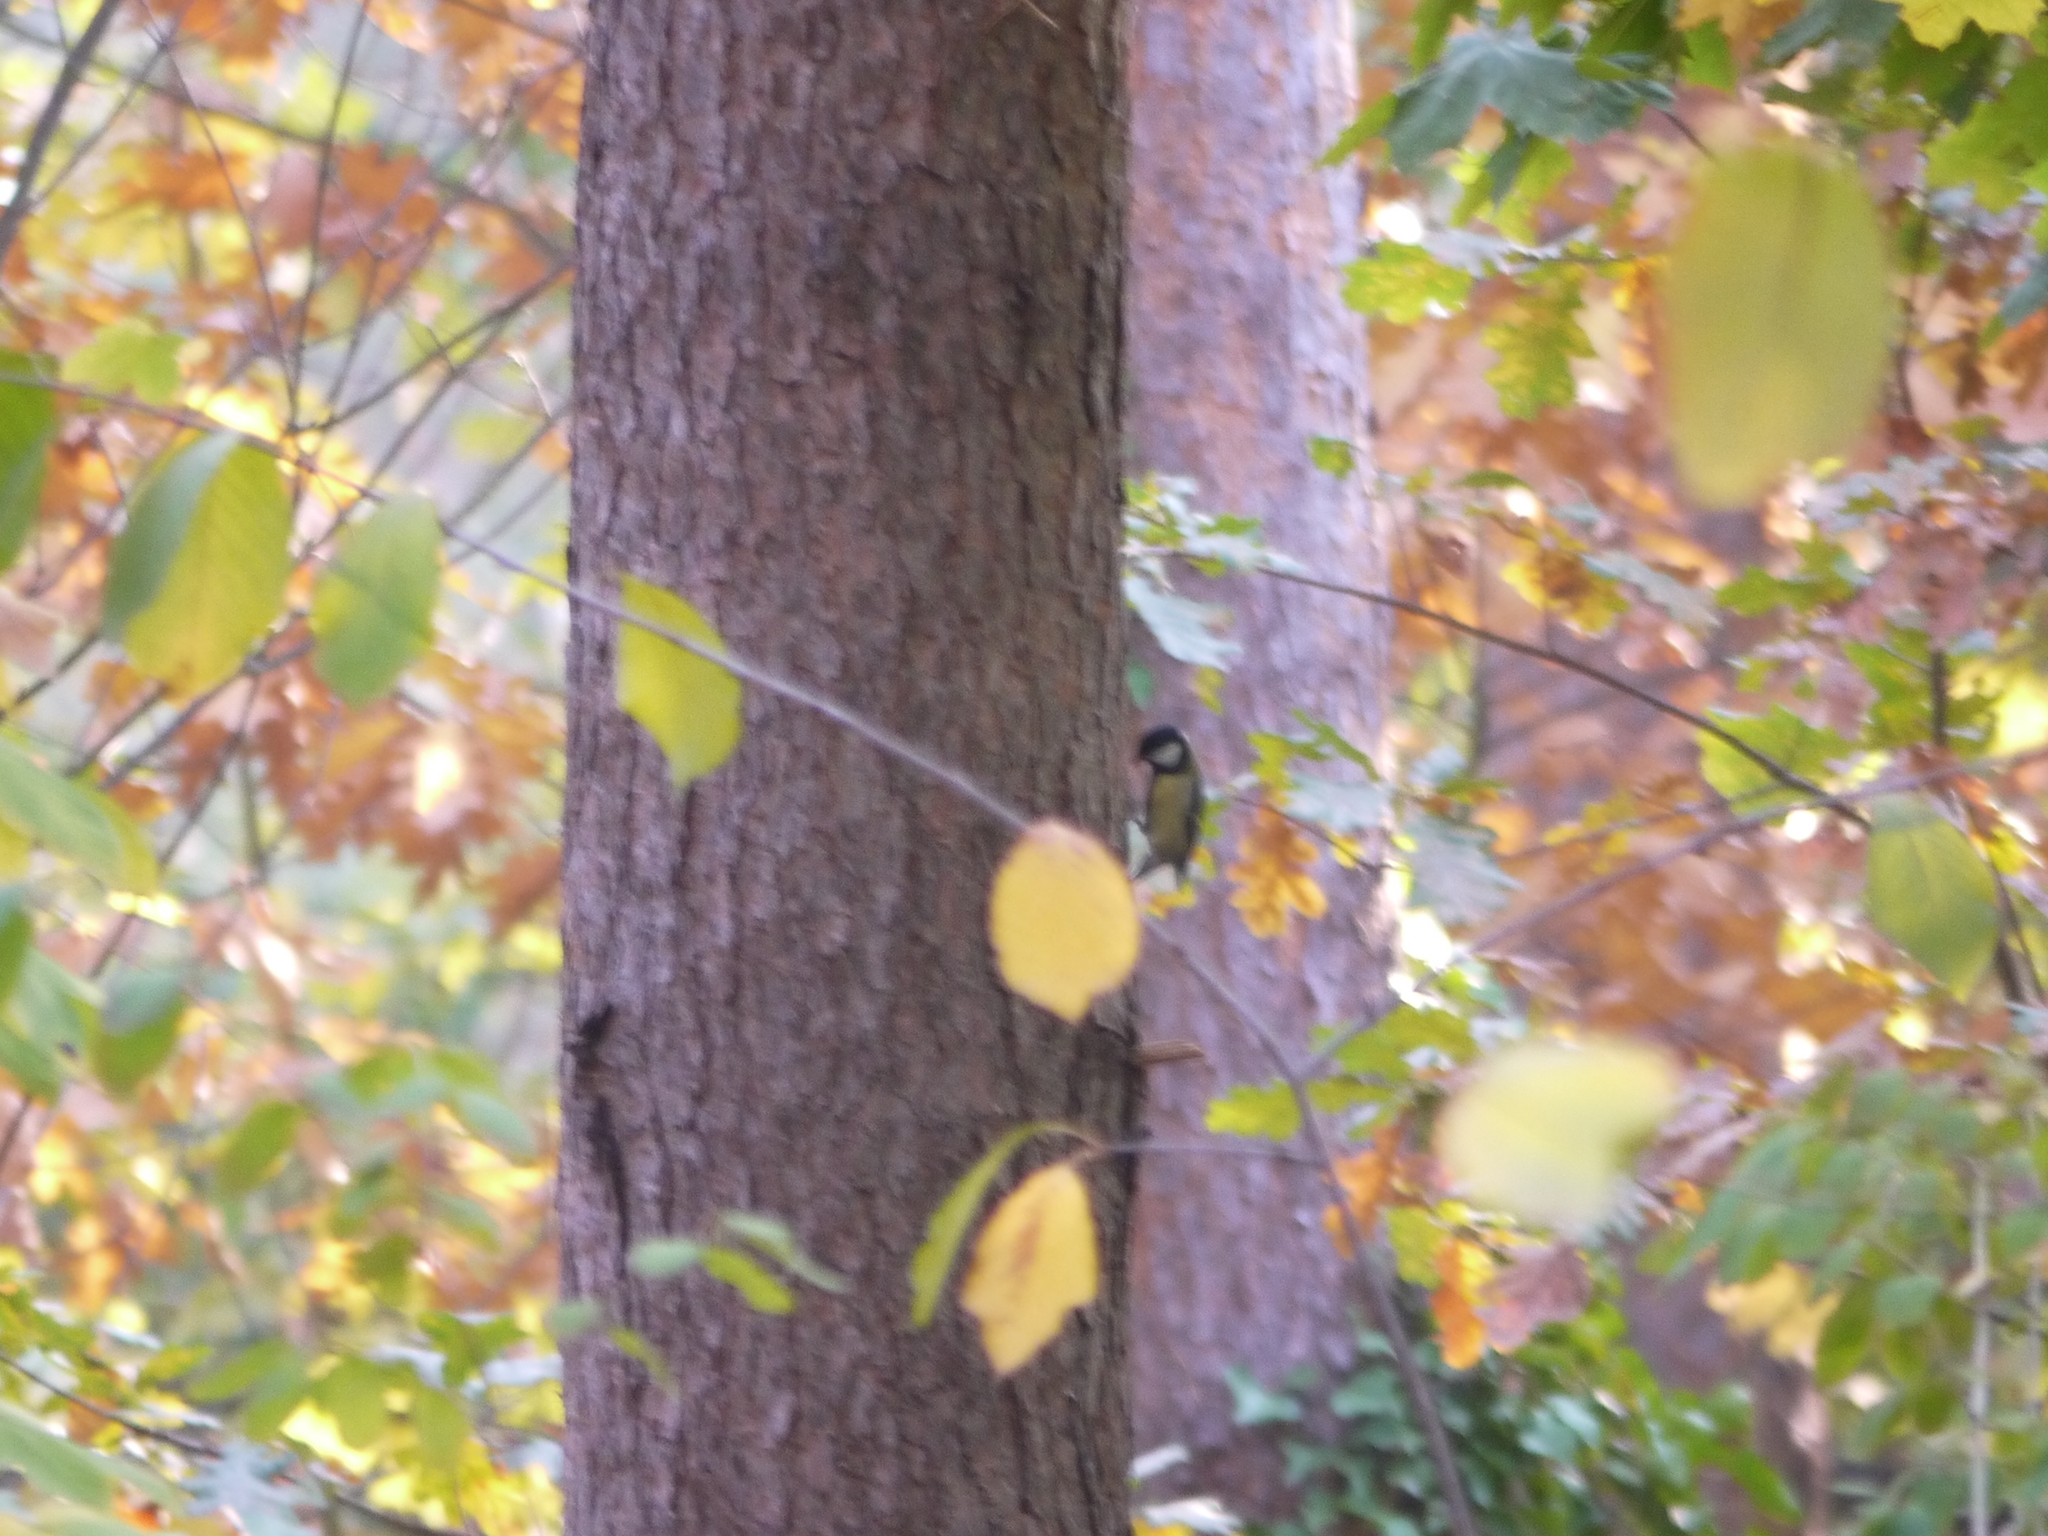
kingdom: Animalia
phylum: Chordata
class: Aves
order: Passeriformes
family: Paridae
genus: Parus
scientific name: Parus major
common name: Great tit
